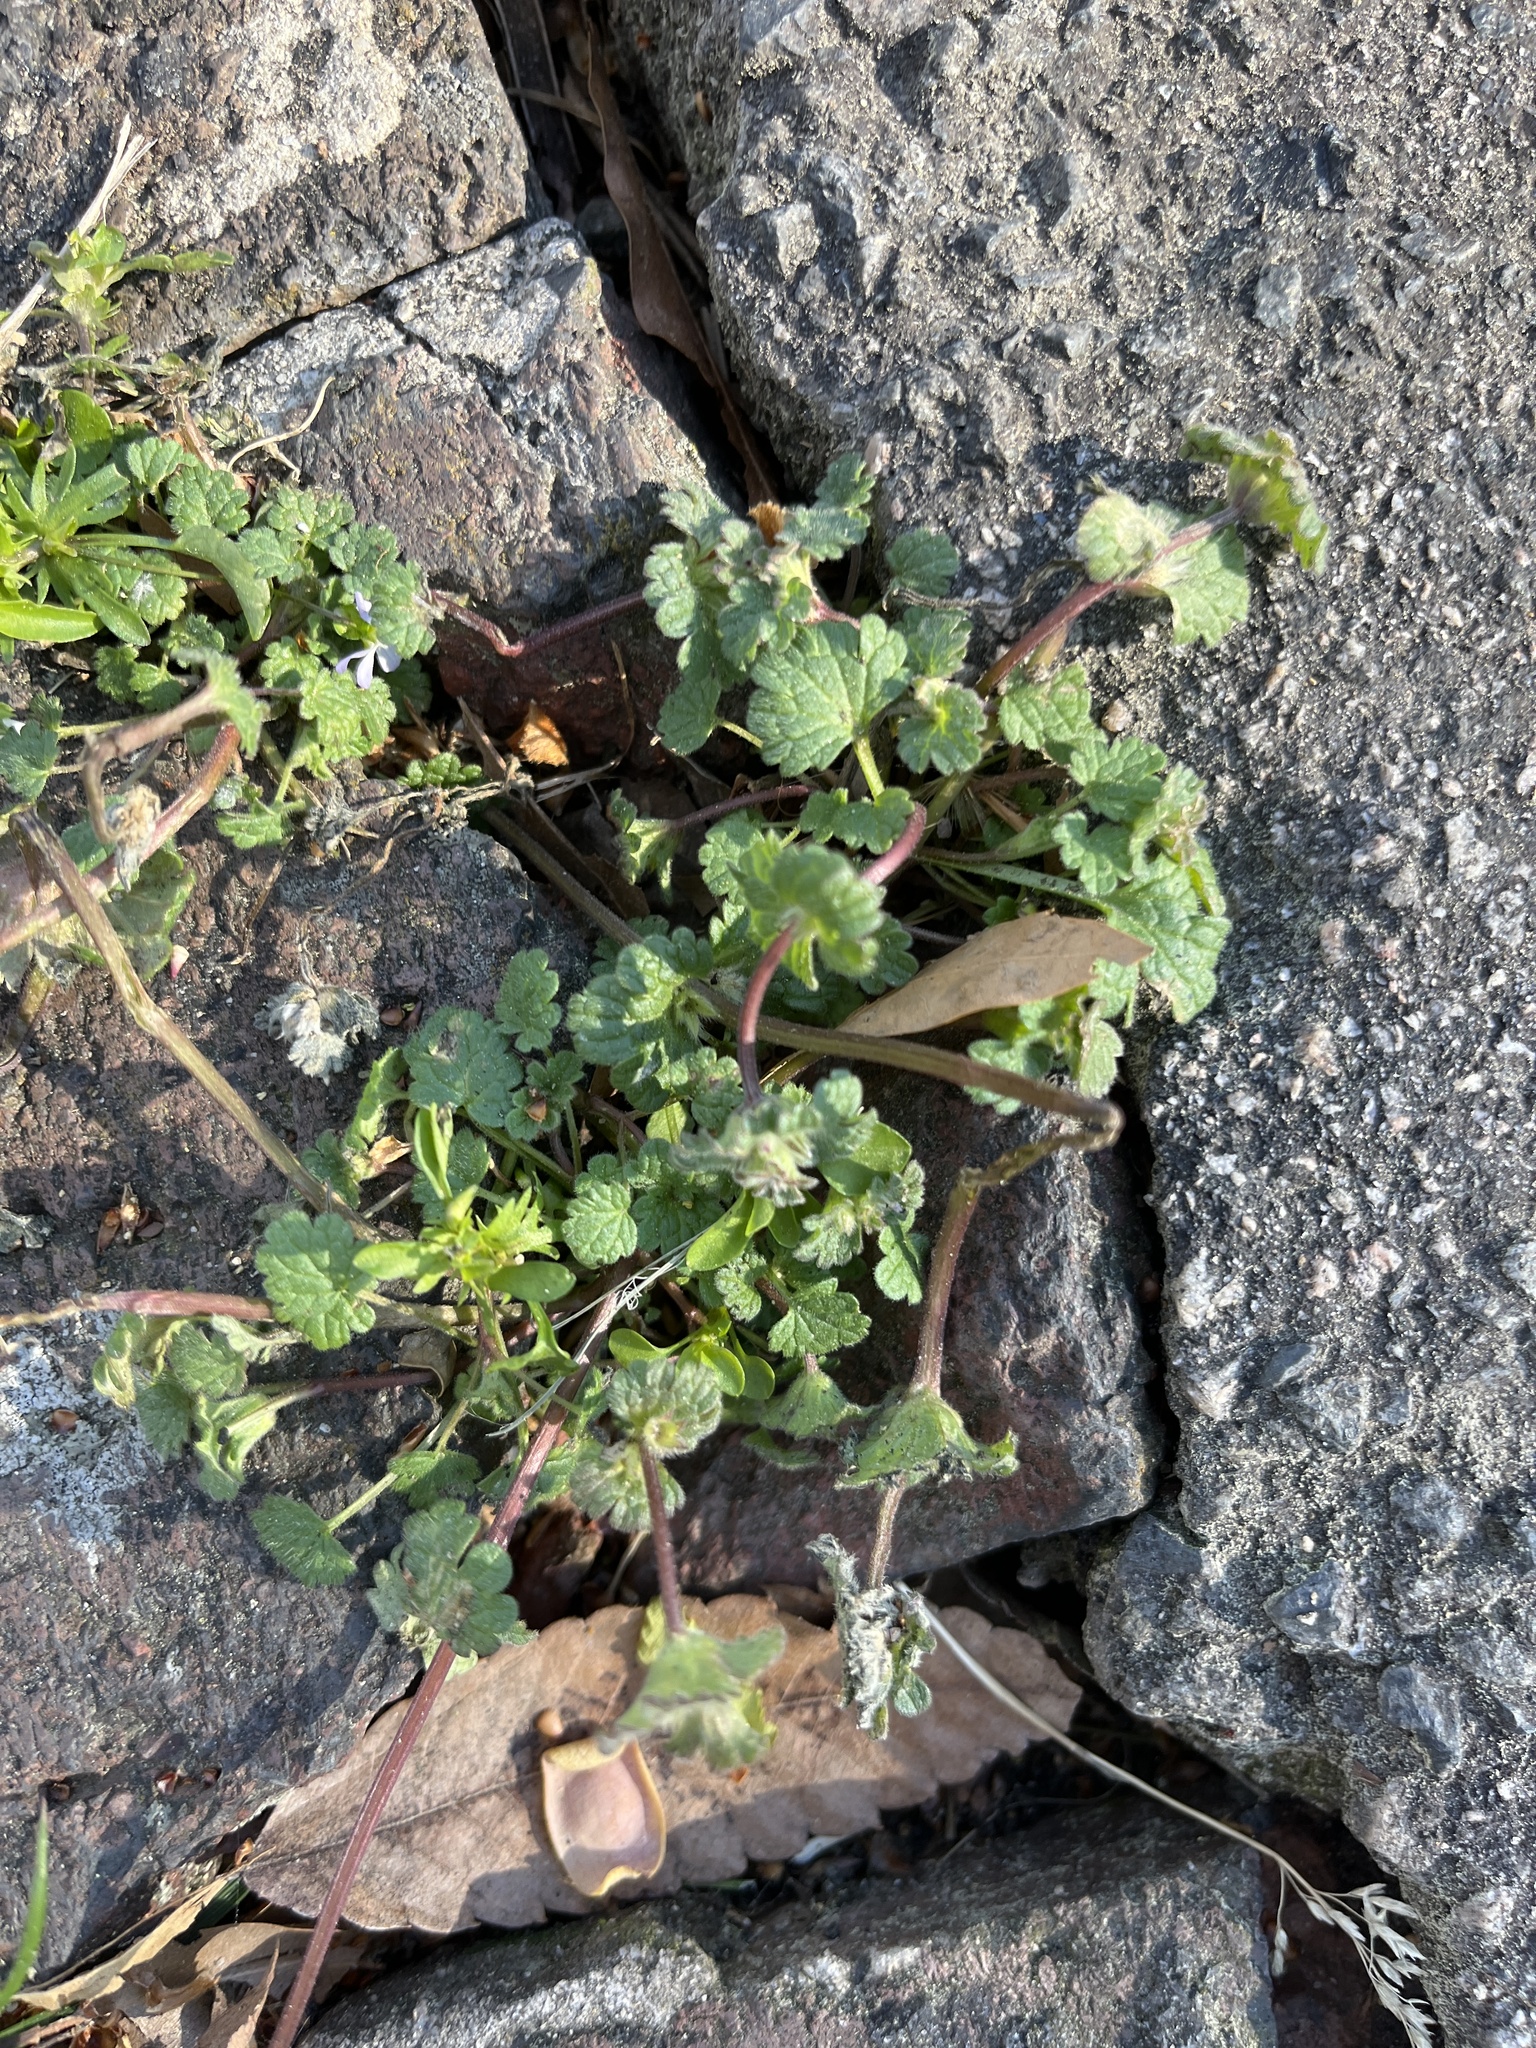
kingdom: Plantae
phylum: Tracheophyta
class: Magnoliopsida
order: Lamiales
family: Lamiaceae
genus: Lamium
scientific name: Lamium amplexicaule
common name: Henbit dead-nettle
